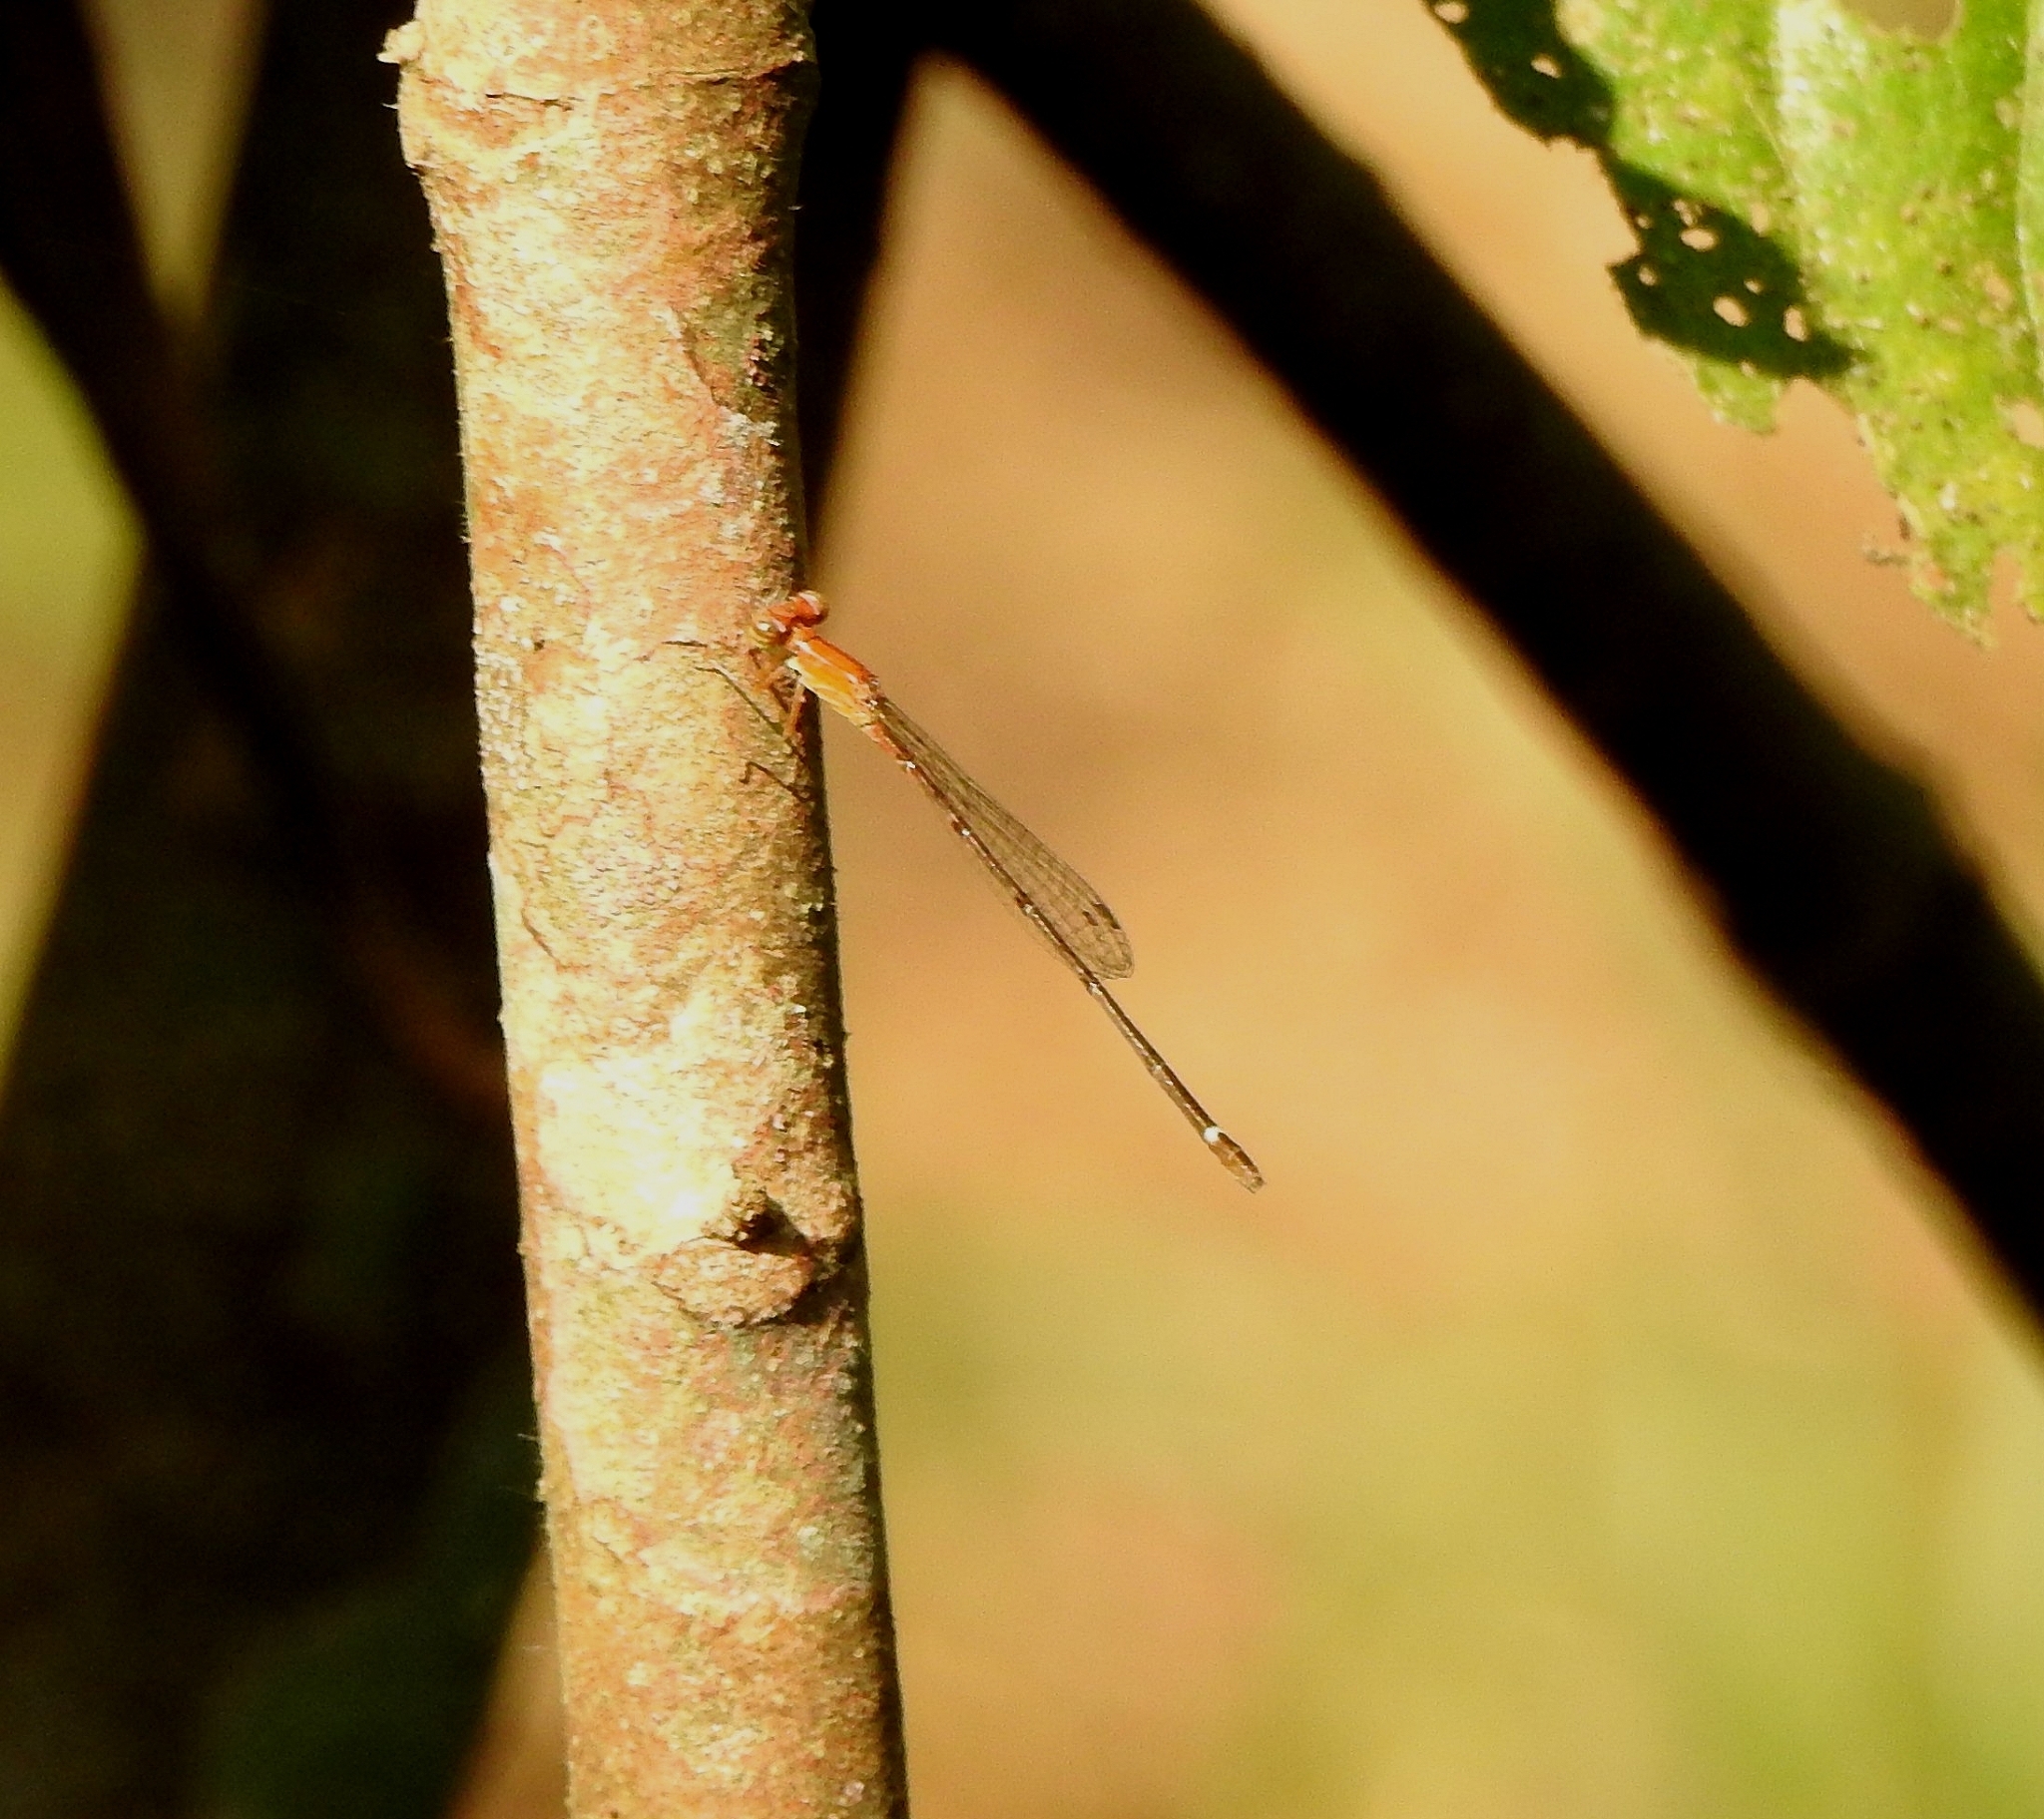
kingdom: Animalia
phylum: Arthropoda
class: Insecta
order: Odonata
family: Coenagrionidae
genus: Mortonagrion
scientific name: Mortonagrion varralli
